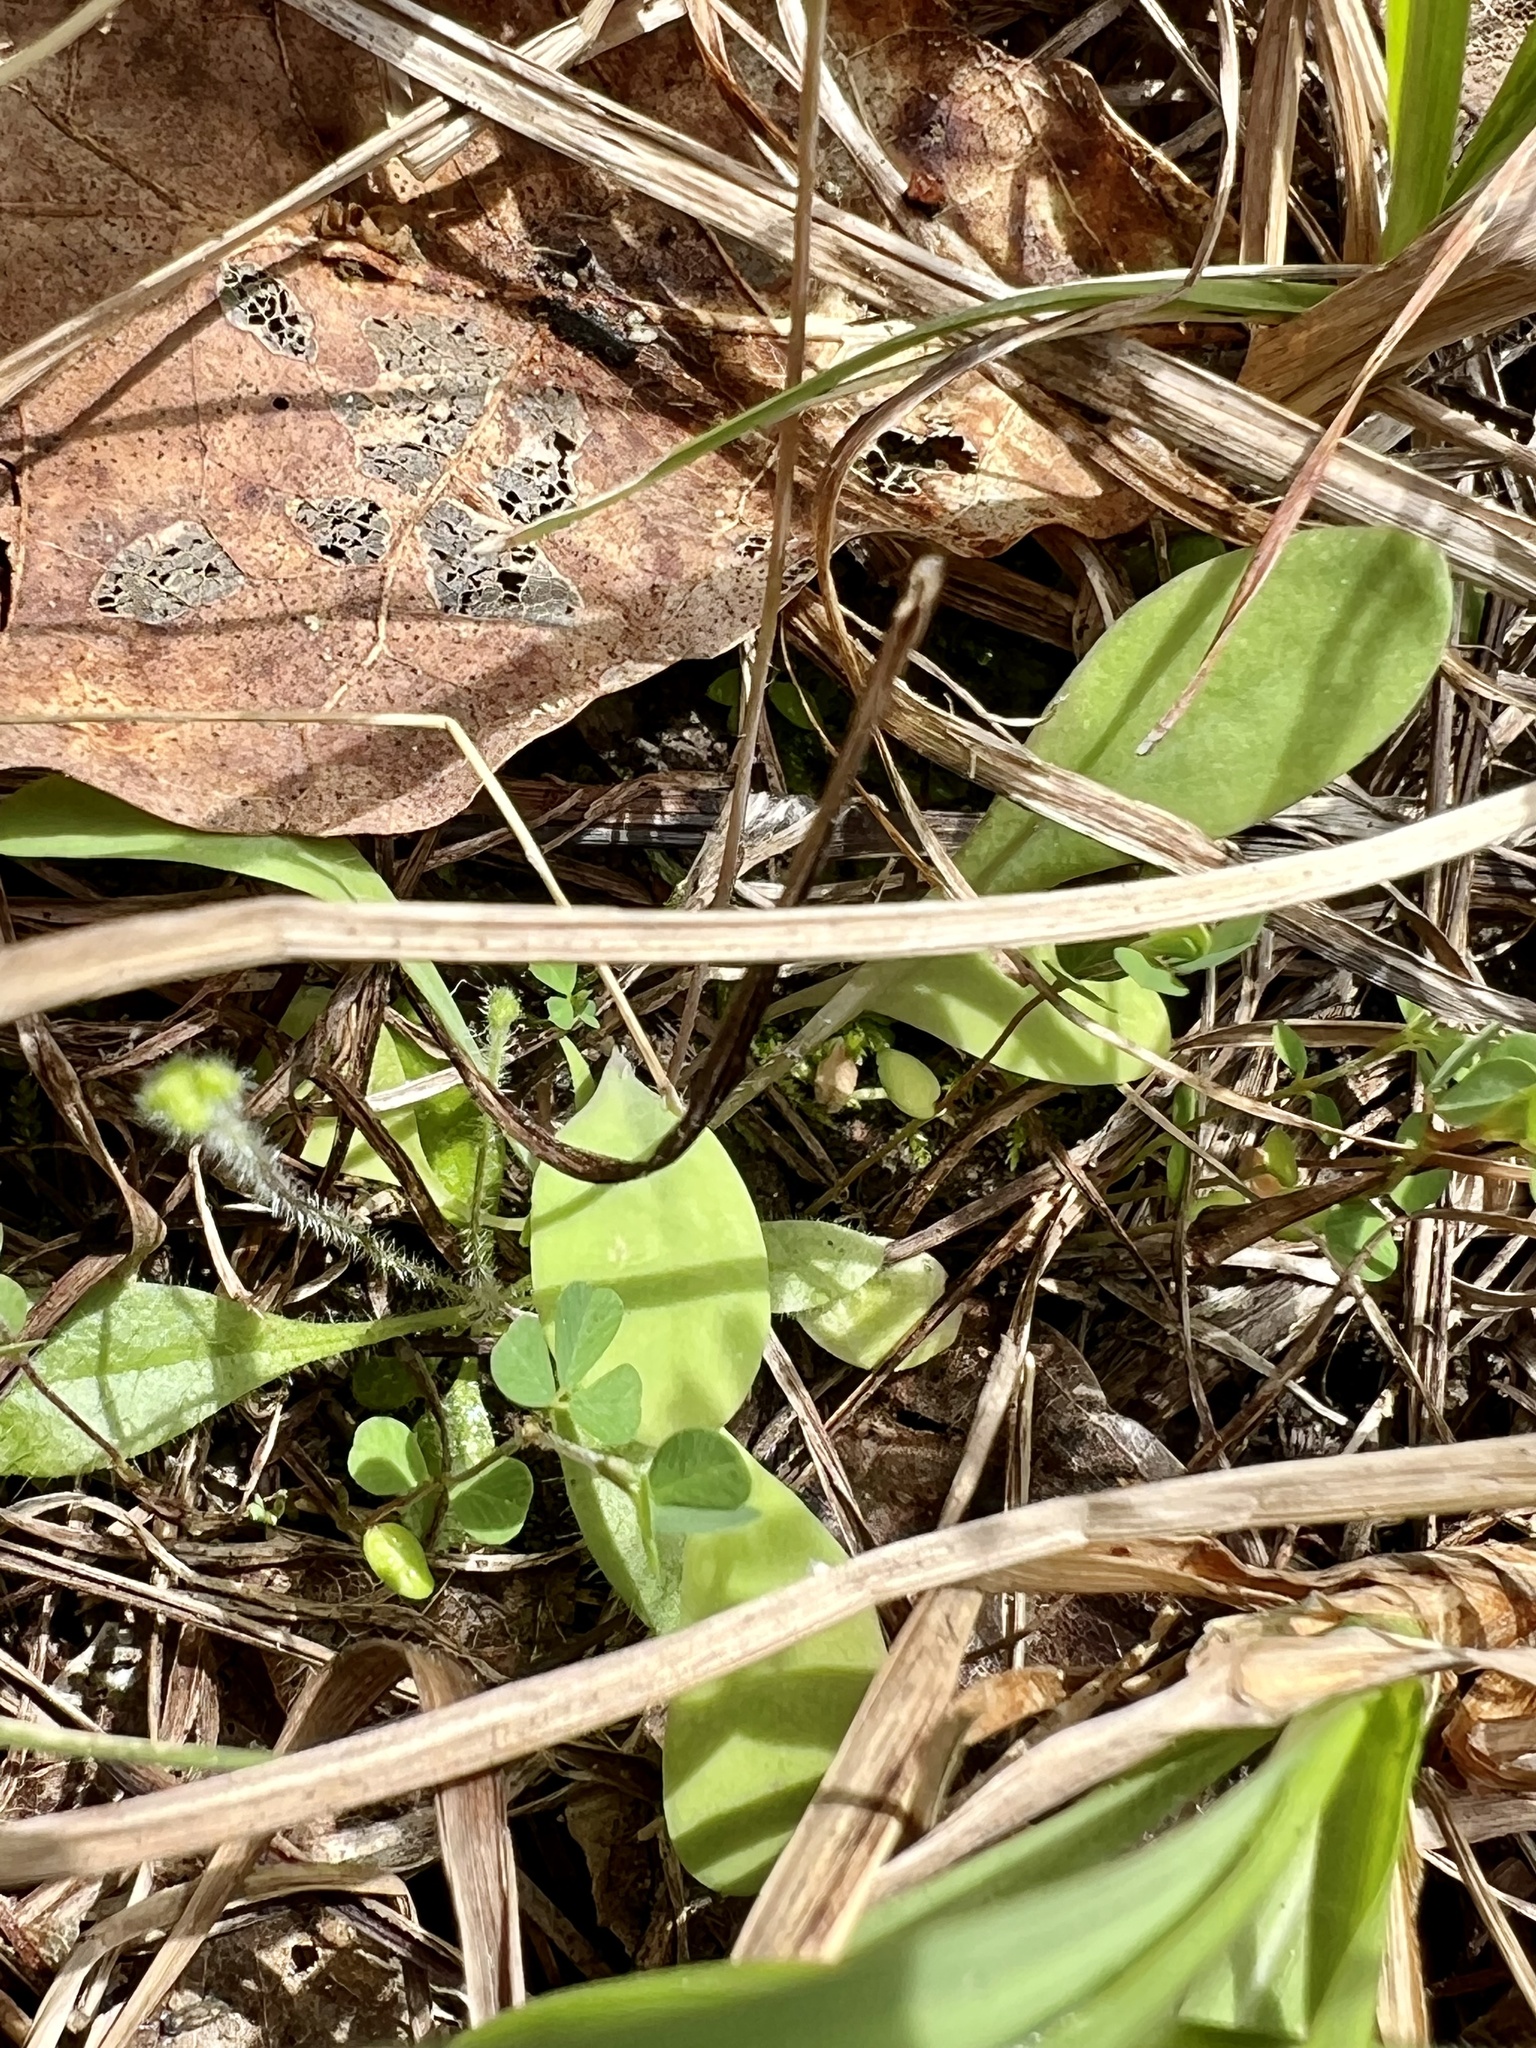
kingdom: Plantae
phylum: Tracheophyta
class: Magnoliopsida
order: Asterales
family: Asteraceae
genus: Krigia
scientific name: Krigia occidentalis
